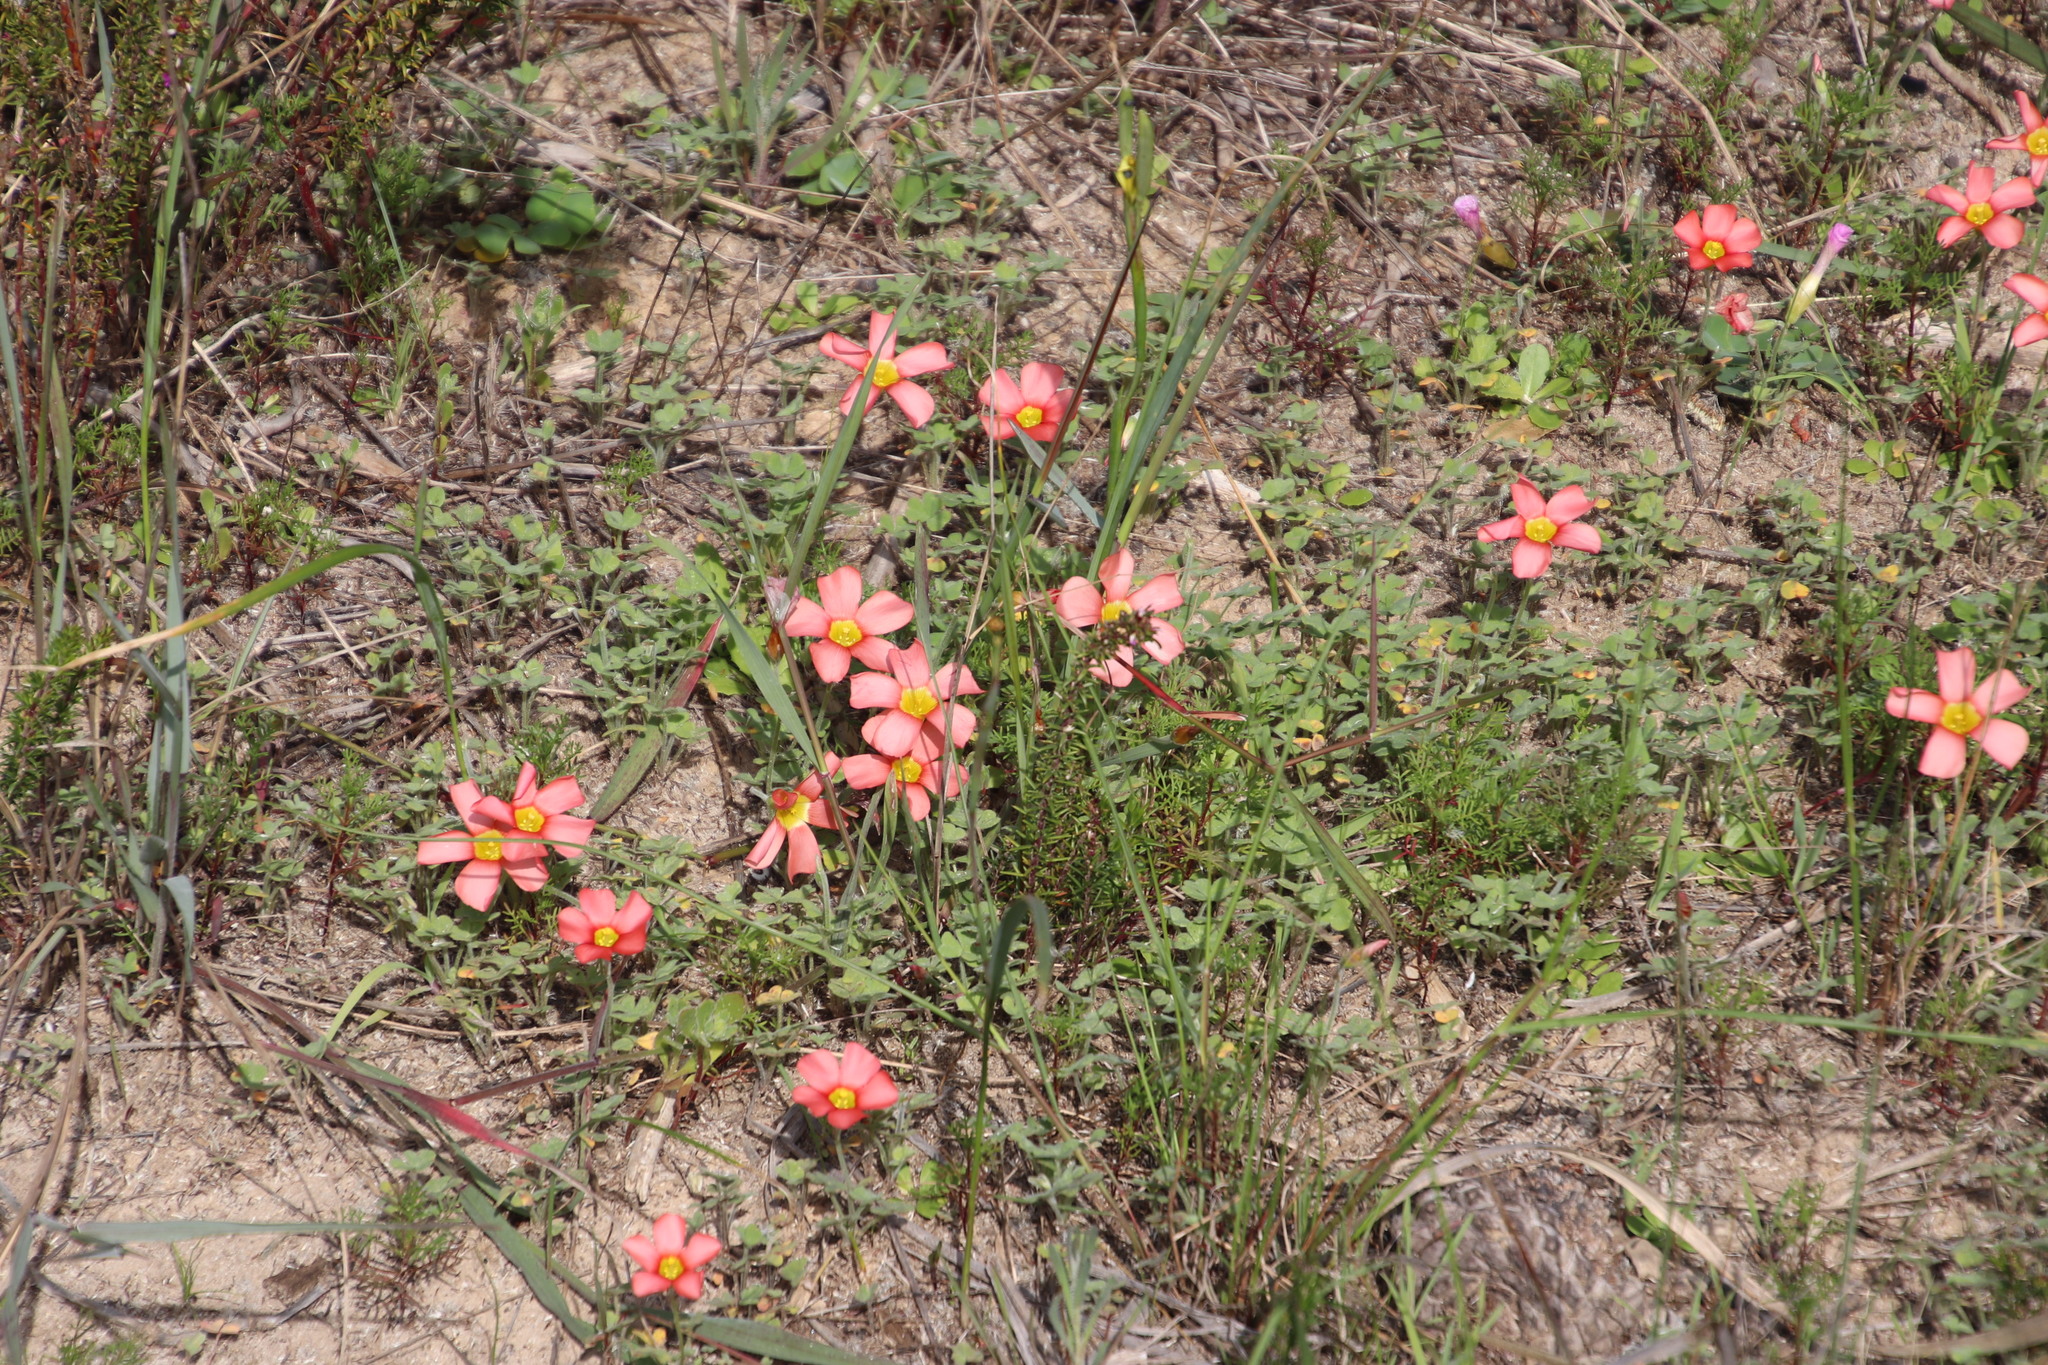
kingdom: Plantae
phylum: Tracheophyta
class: Magnoliopsida
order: Oxalidales
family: Oxalidaceae
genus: Oxalis
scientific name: Oxalis obtusa
